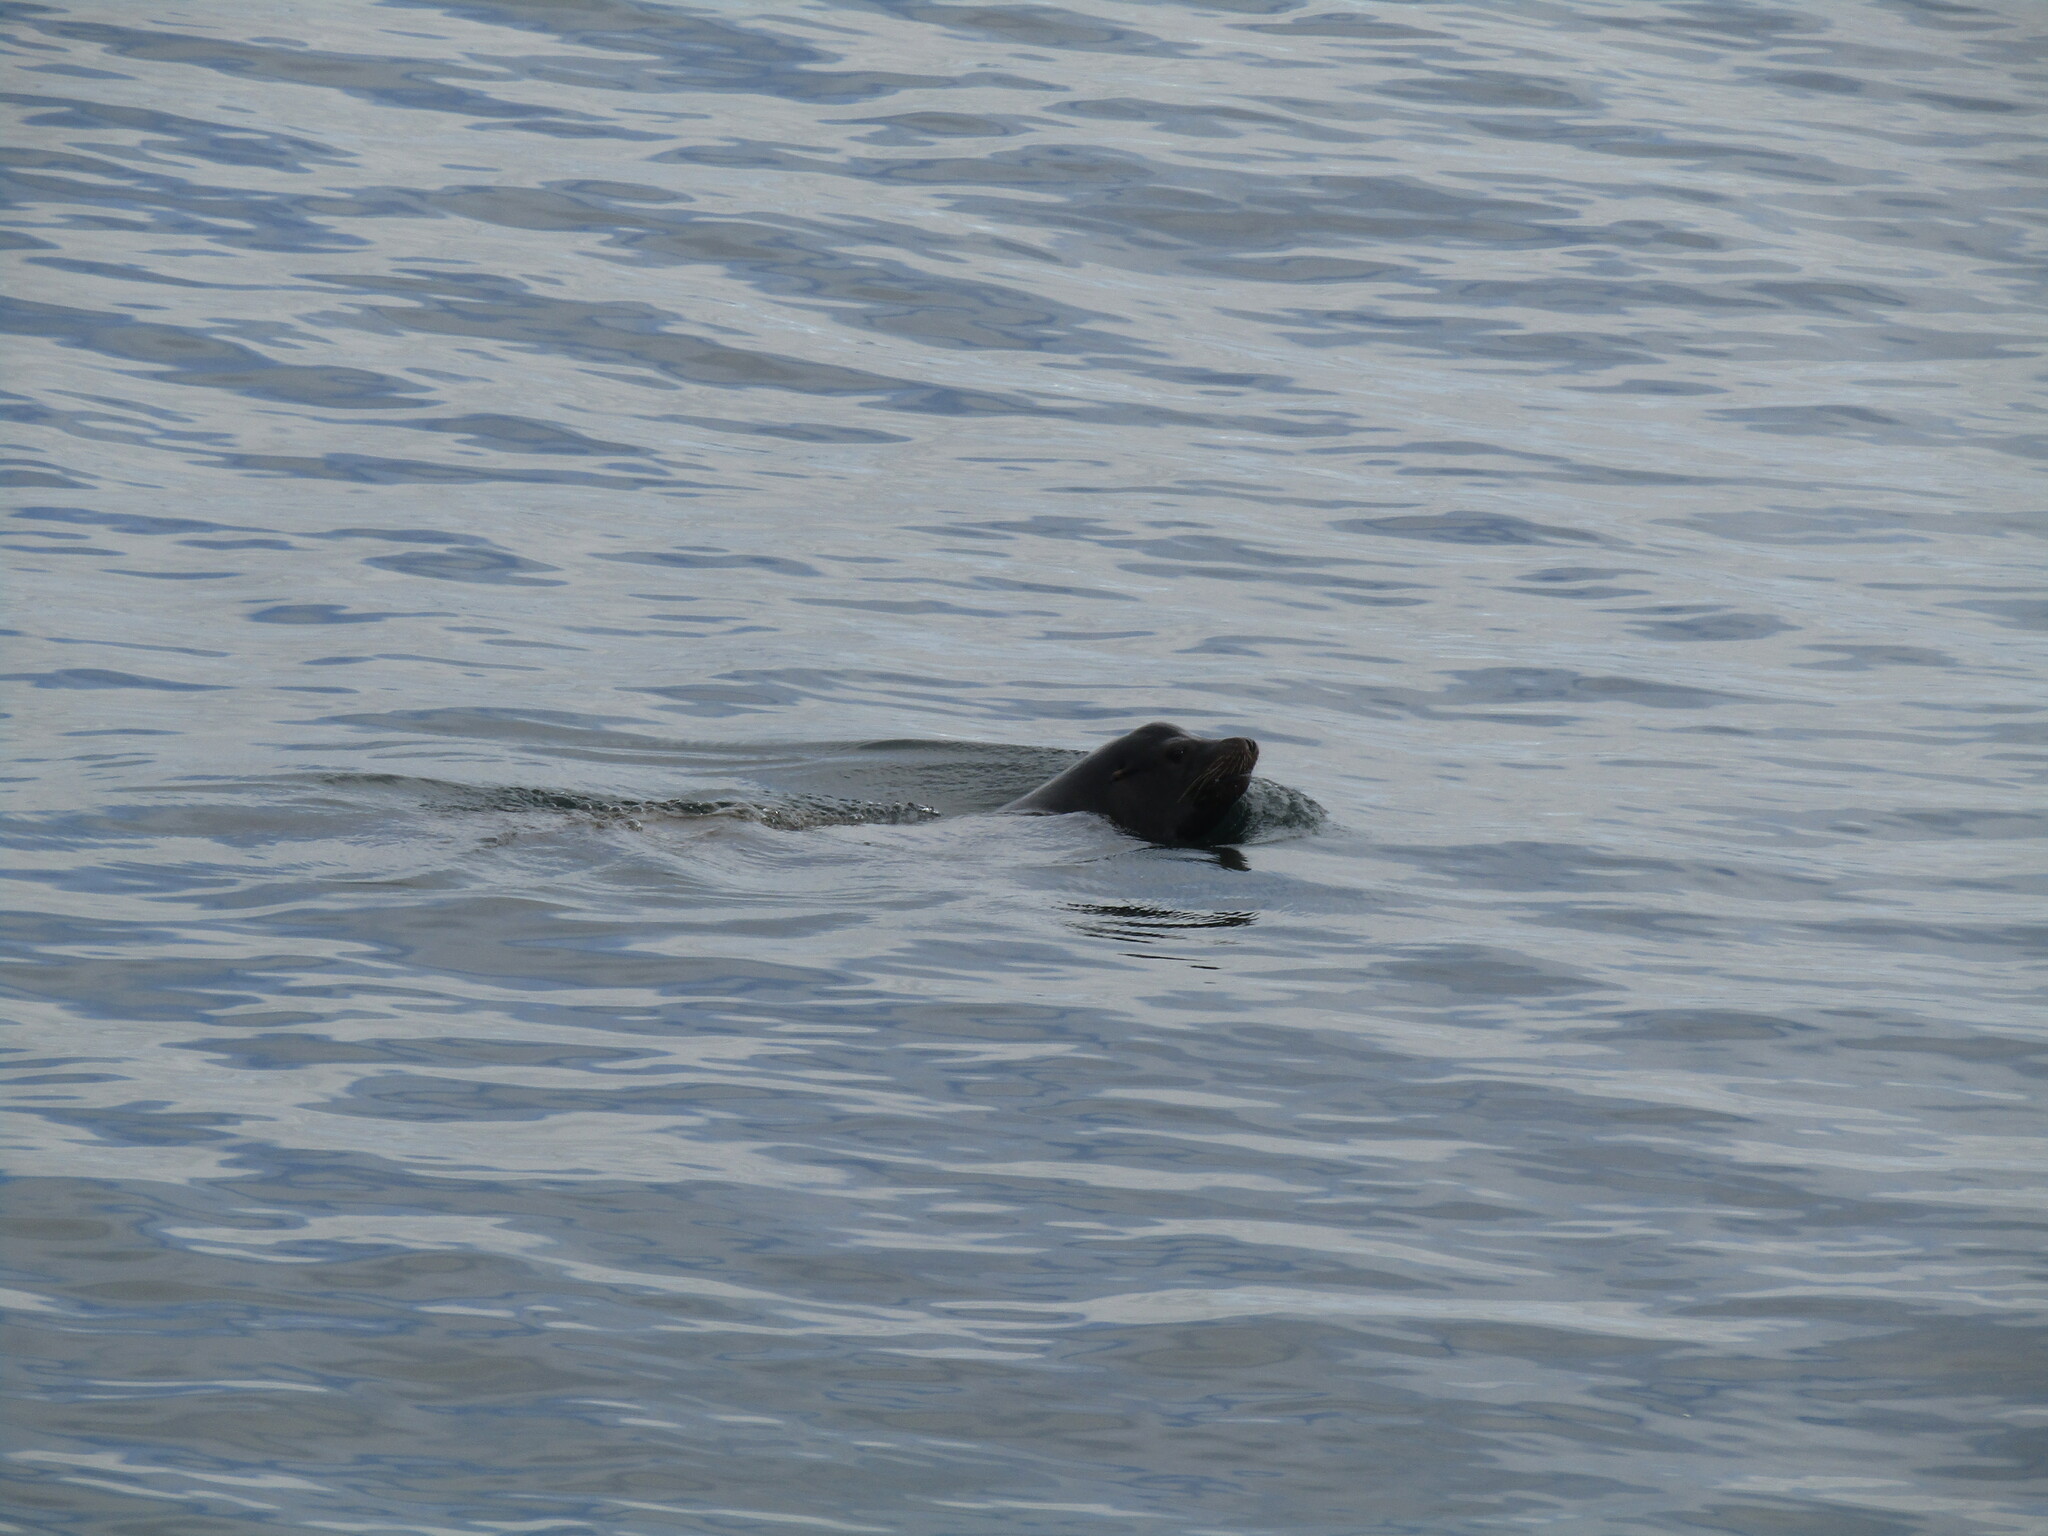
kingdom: Animalia
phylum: Chordata
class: Mammalia
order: Carnivora
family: Otariidae
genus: Zalophus
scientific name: Zalophus californianus
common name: California sea lion
